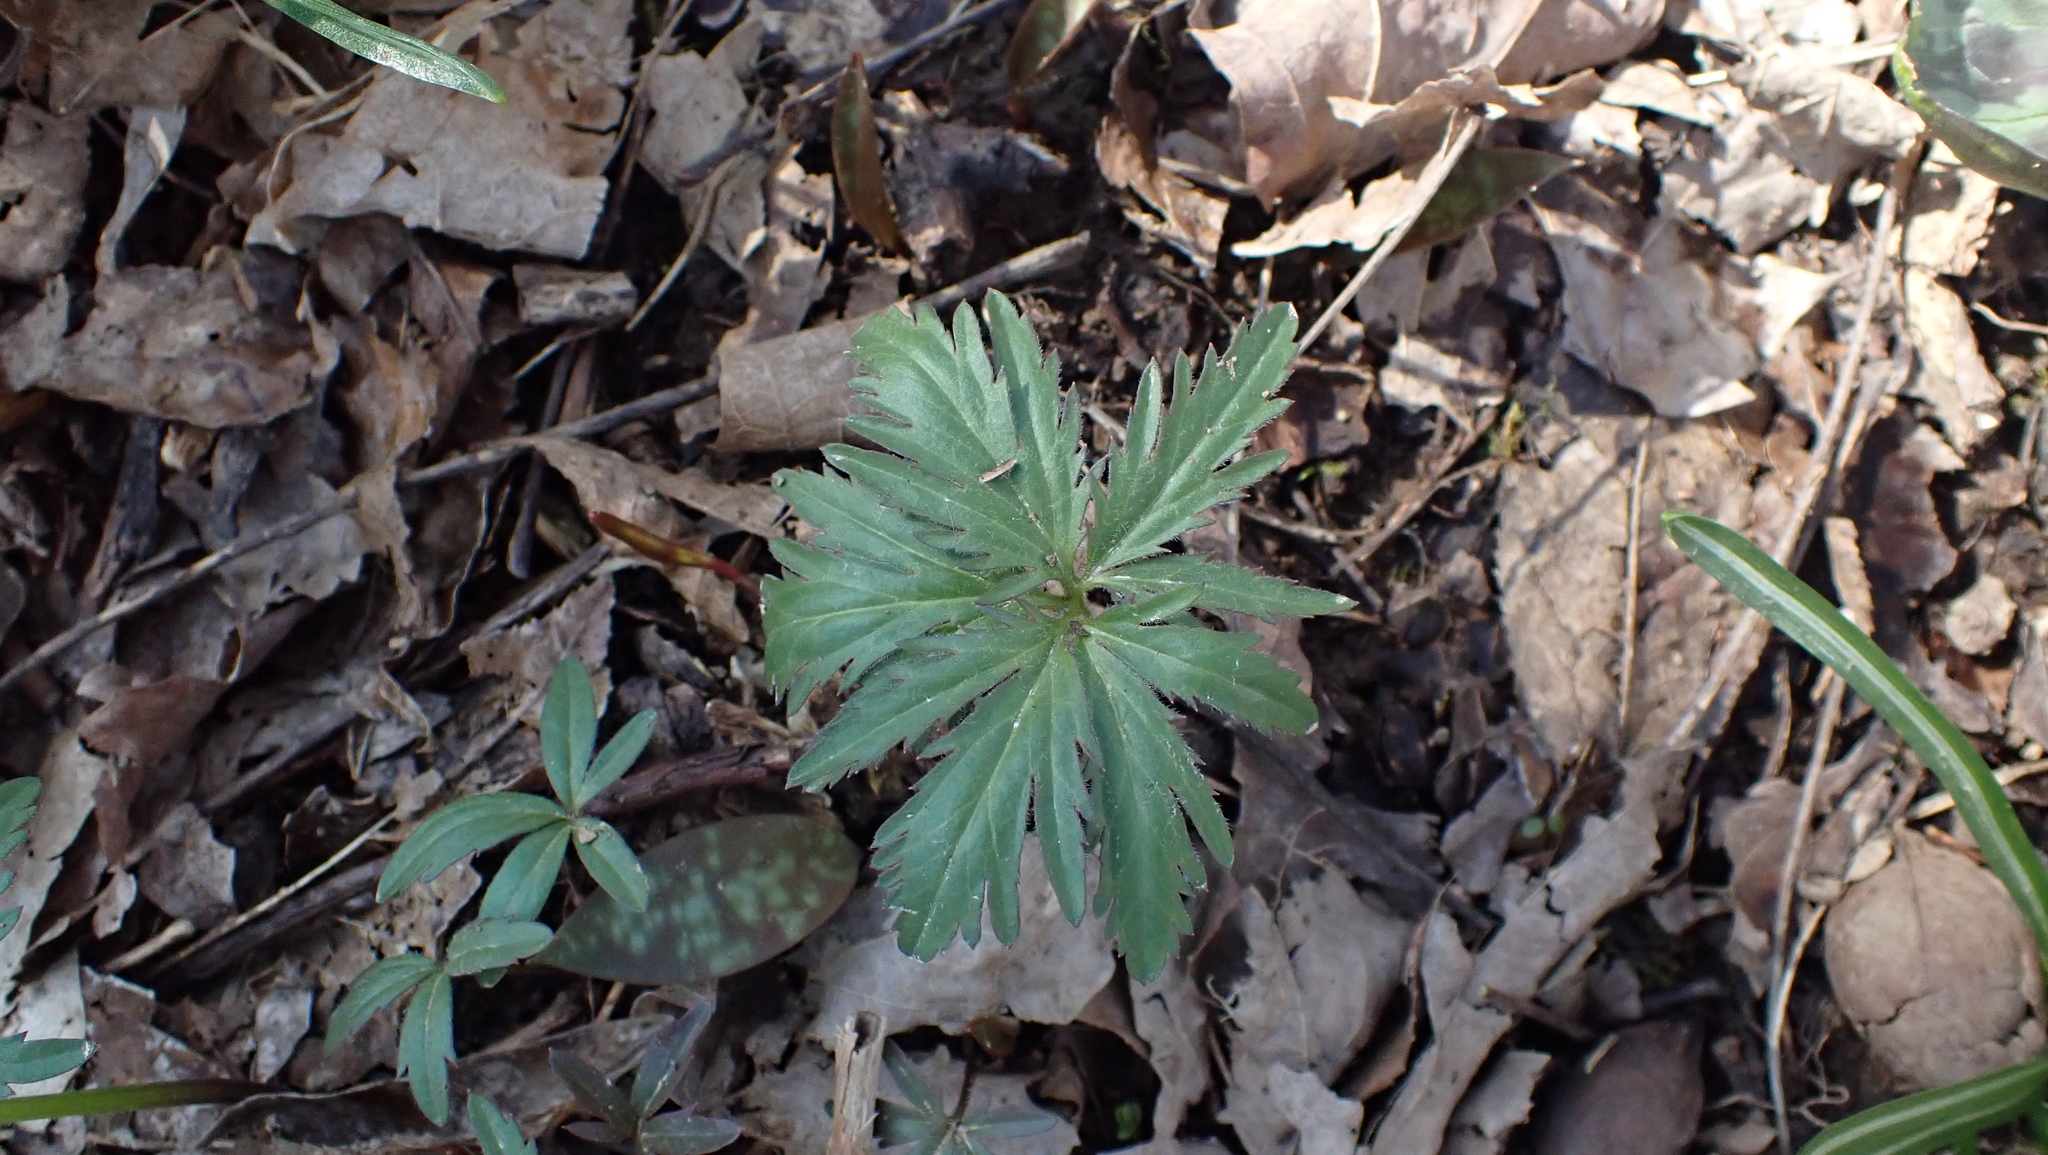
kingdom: Plantae
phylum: Tracheophyta
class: Magnoliopsida
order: Brassicales
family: Brassicaceae
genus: Cardamine
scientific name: Cardamine concatenata
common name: Cut-leaf toothcup
